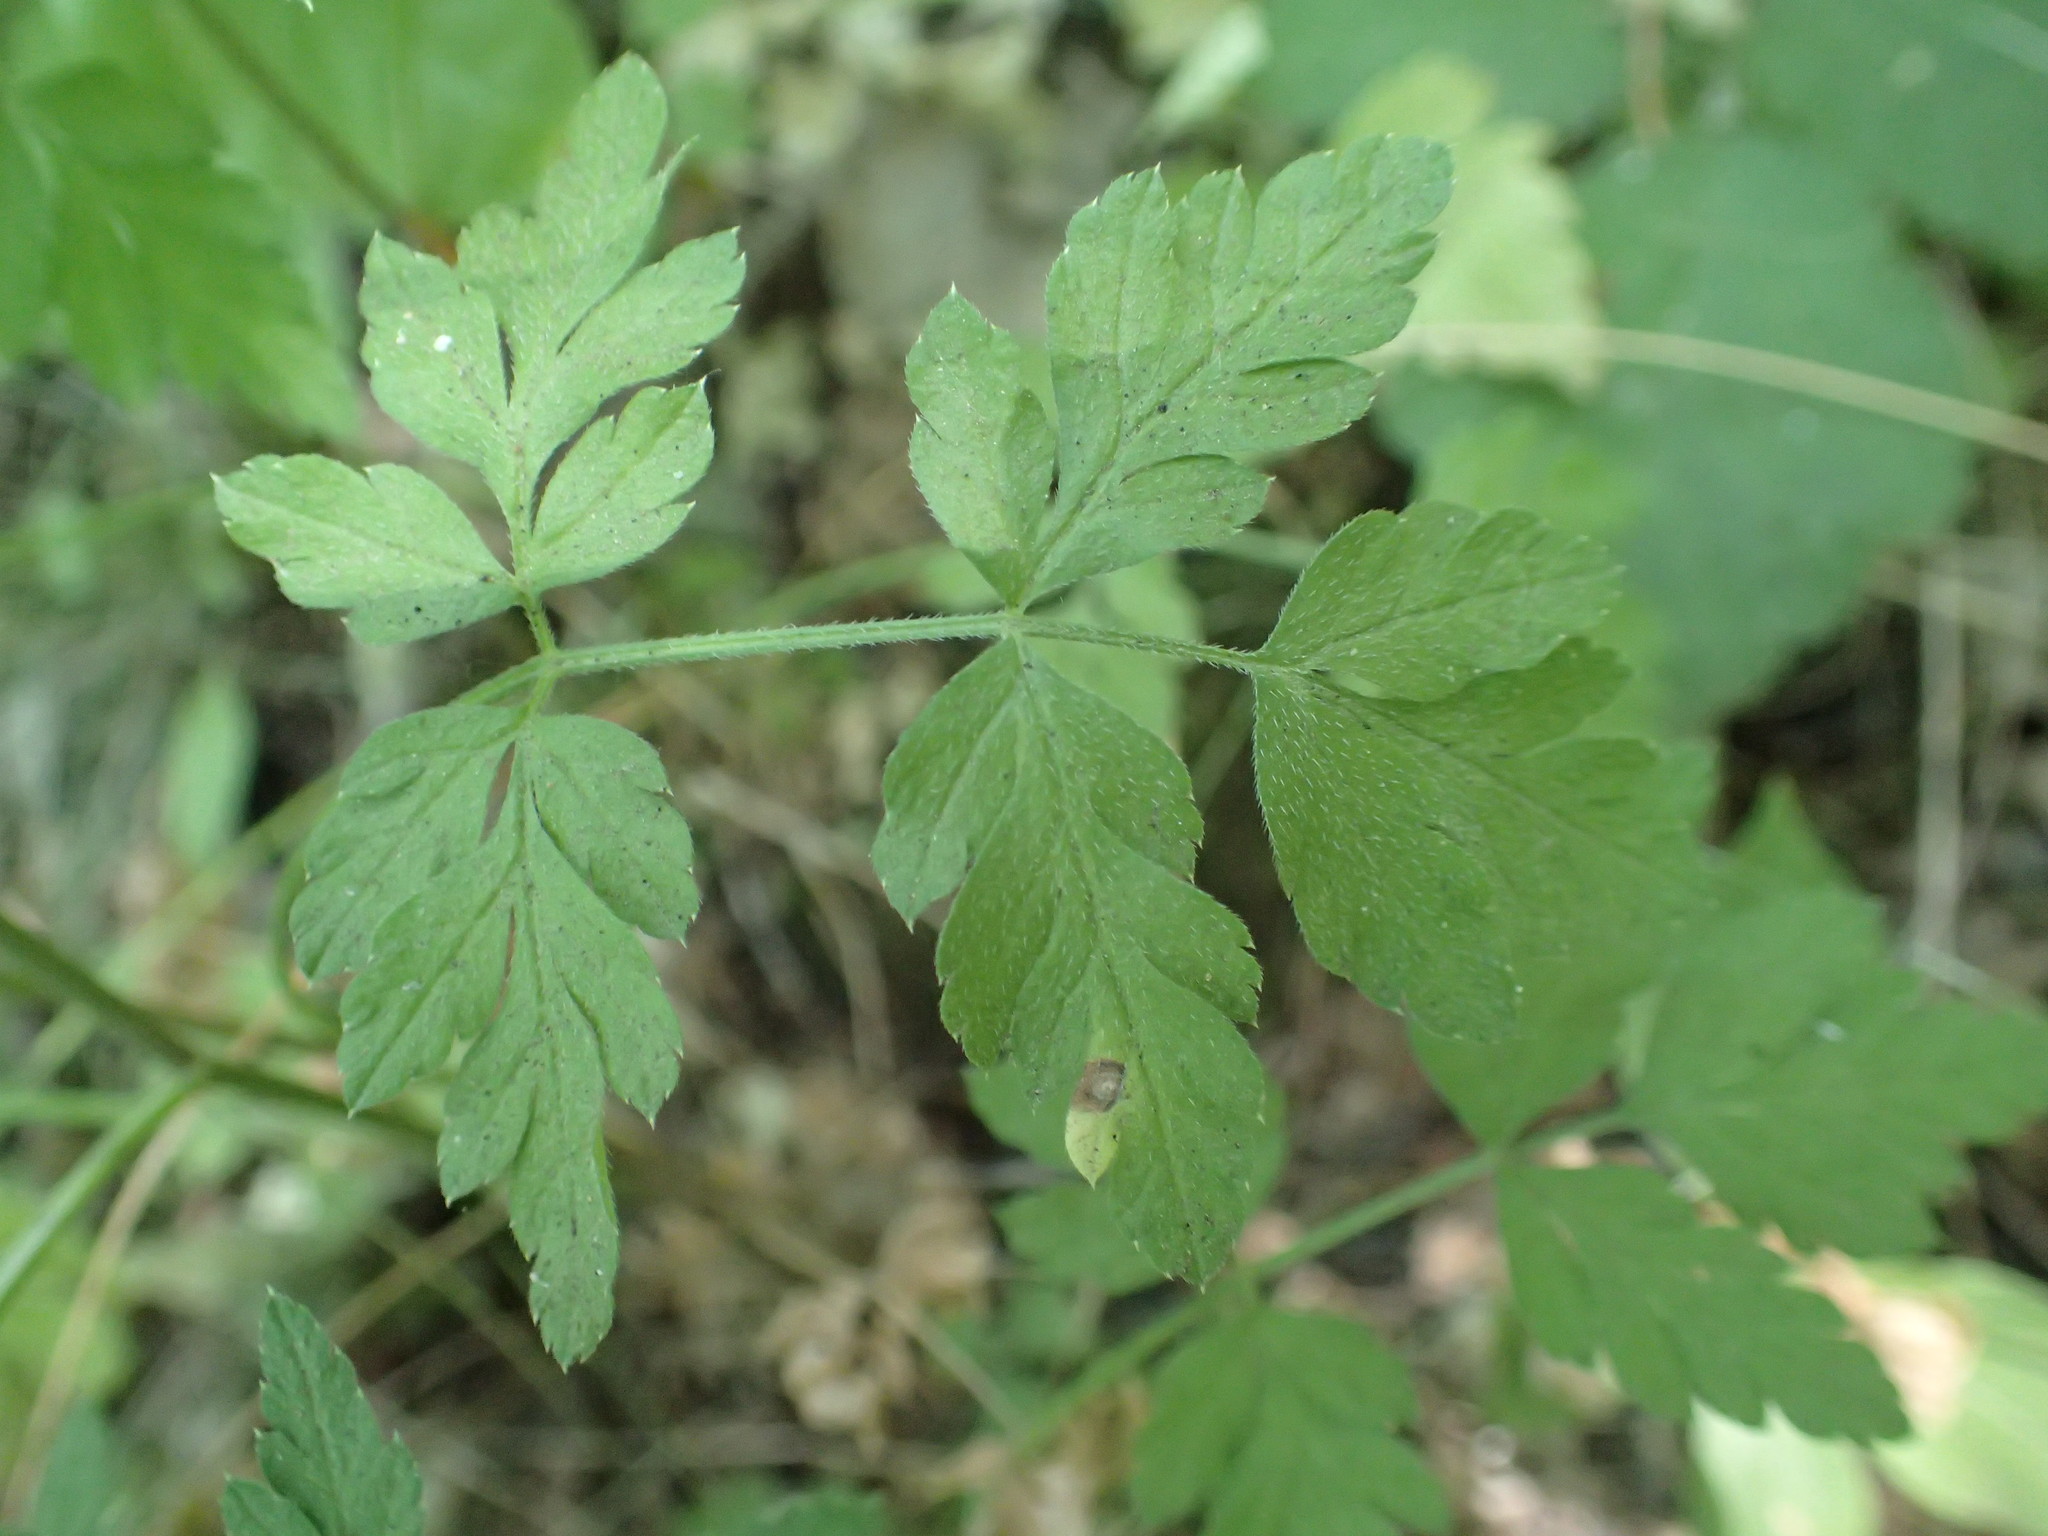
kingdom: Plantae
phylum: Tracheophyta
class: Magnoliopsida
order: Apiales
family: Apiaceae
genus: Osmorhiza
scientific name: Osmorhiza berteroi
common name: Mountain sweet cicely
